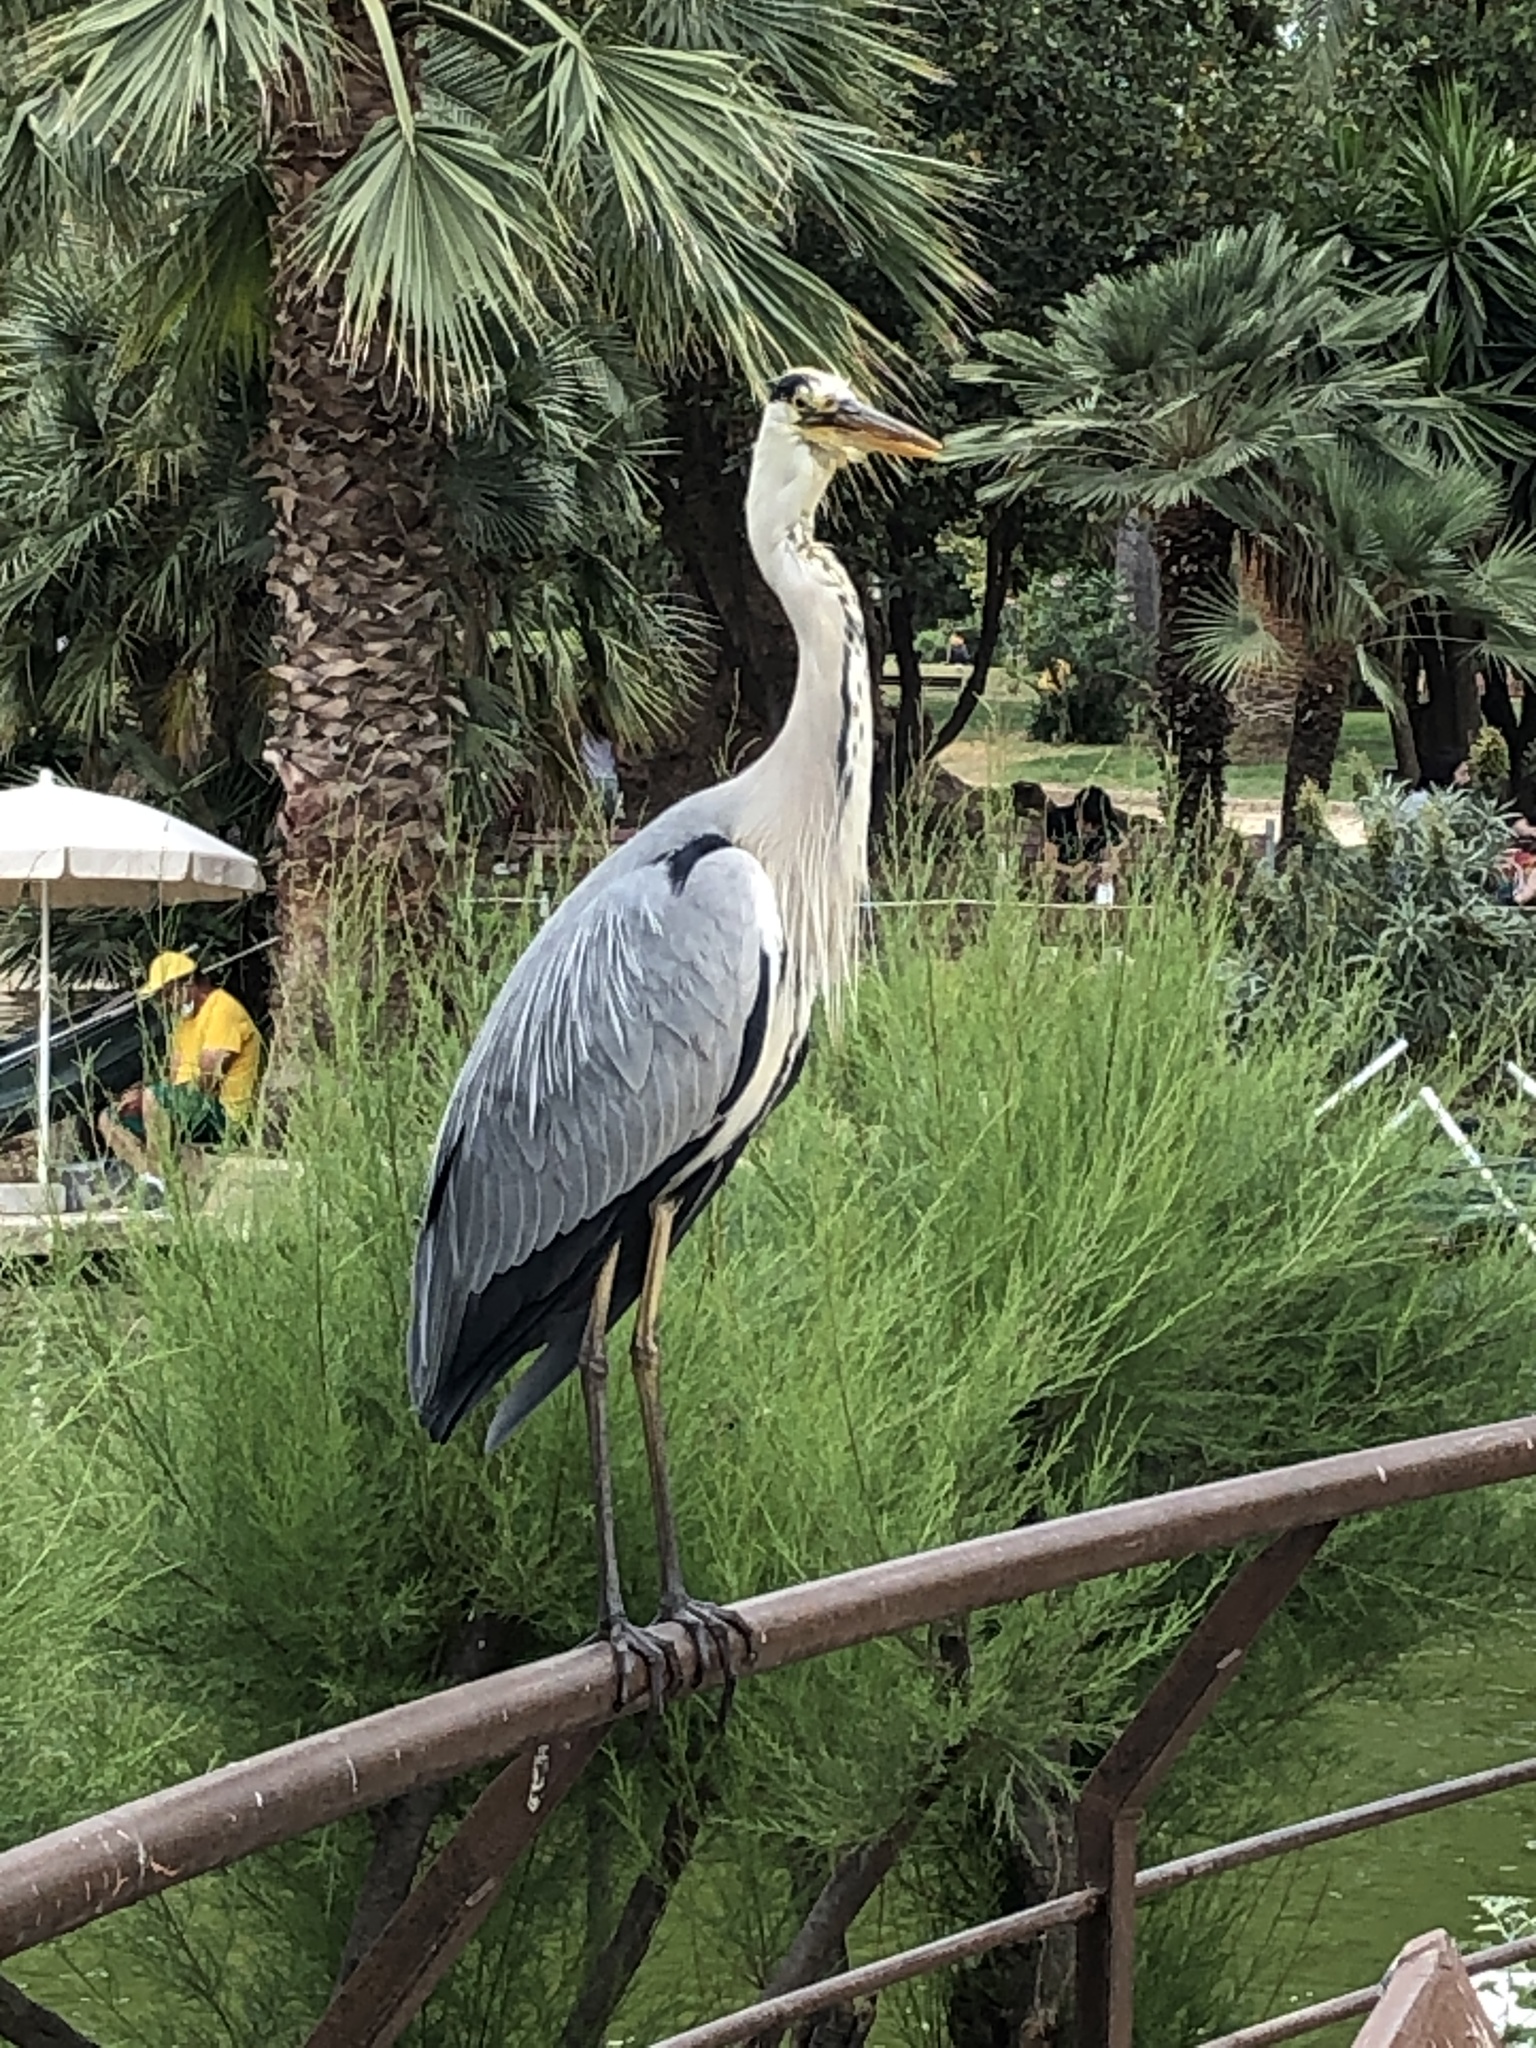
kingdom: Animalia
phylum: Chordata
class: Aves
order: Pelecaniformes
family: Ardeidae
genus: Ardea
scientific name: Ardea cinerea
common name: Grey heron
